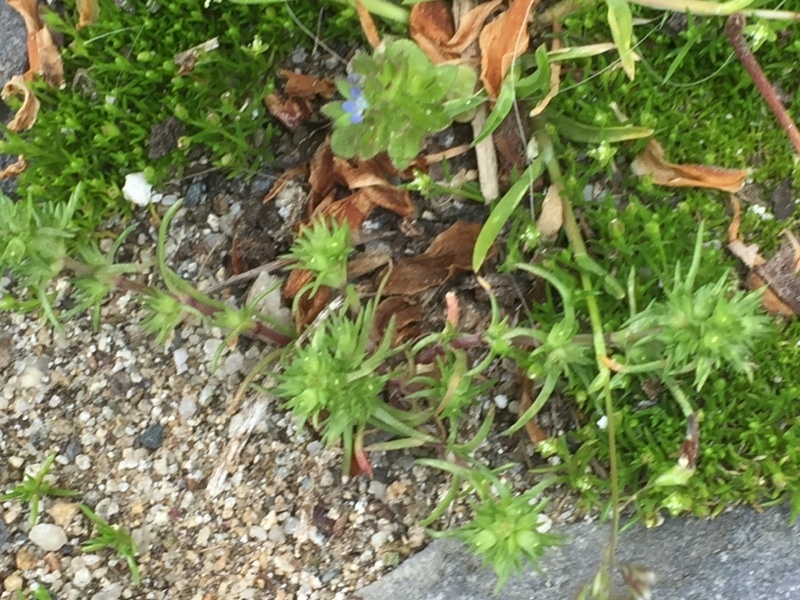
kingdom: Plantae
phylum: Tracheophyta
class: Magnoliopsida
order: Caryophyllales
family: Caryophyllaceae
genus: Scleranthus
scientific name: Scleranthus annuus
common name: Annual knawel
